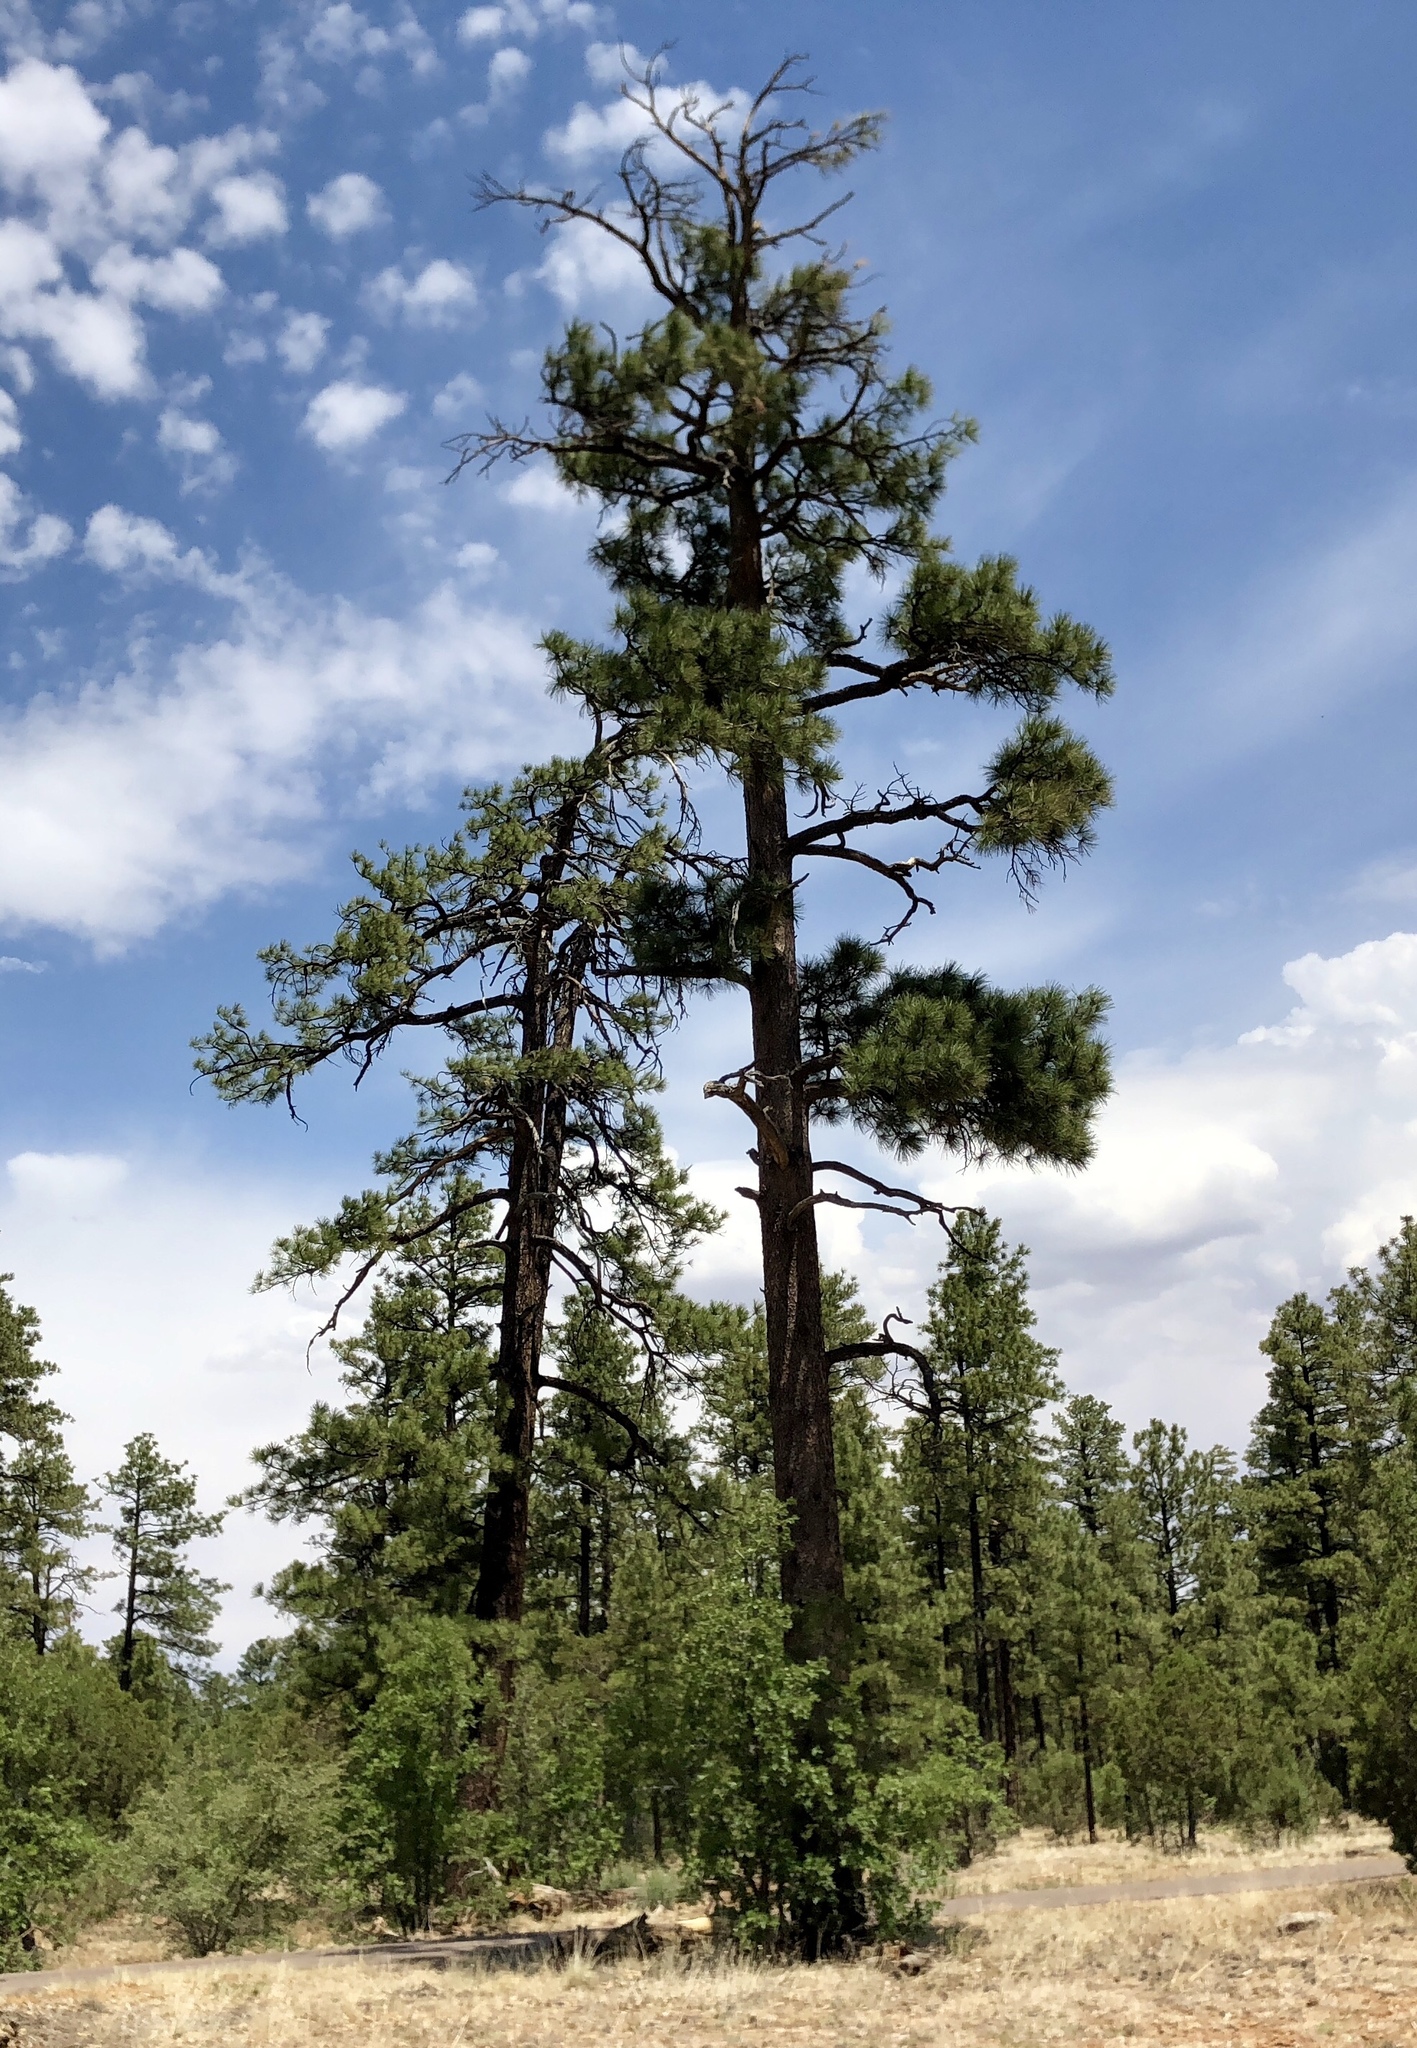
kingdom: Plantae
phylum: Tracheophyta
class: Pinopsida
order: Pinales
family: Pinaceae
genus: Pinus
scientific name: Pinus ponderosa
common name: Western yellow-pine
